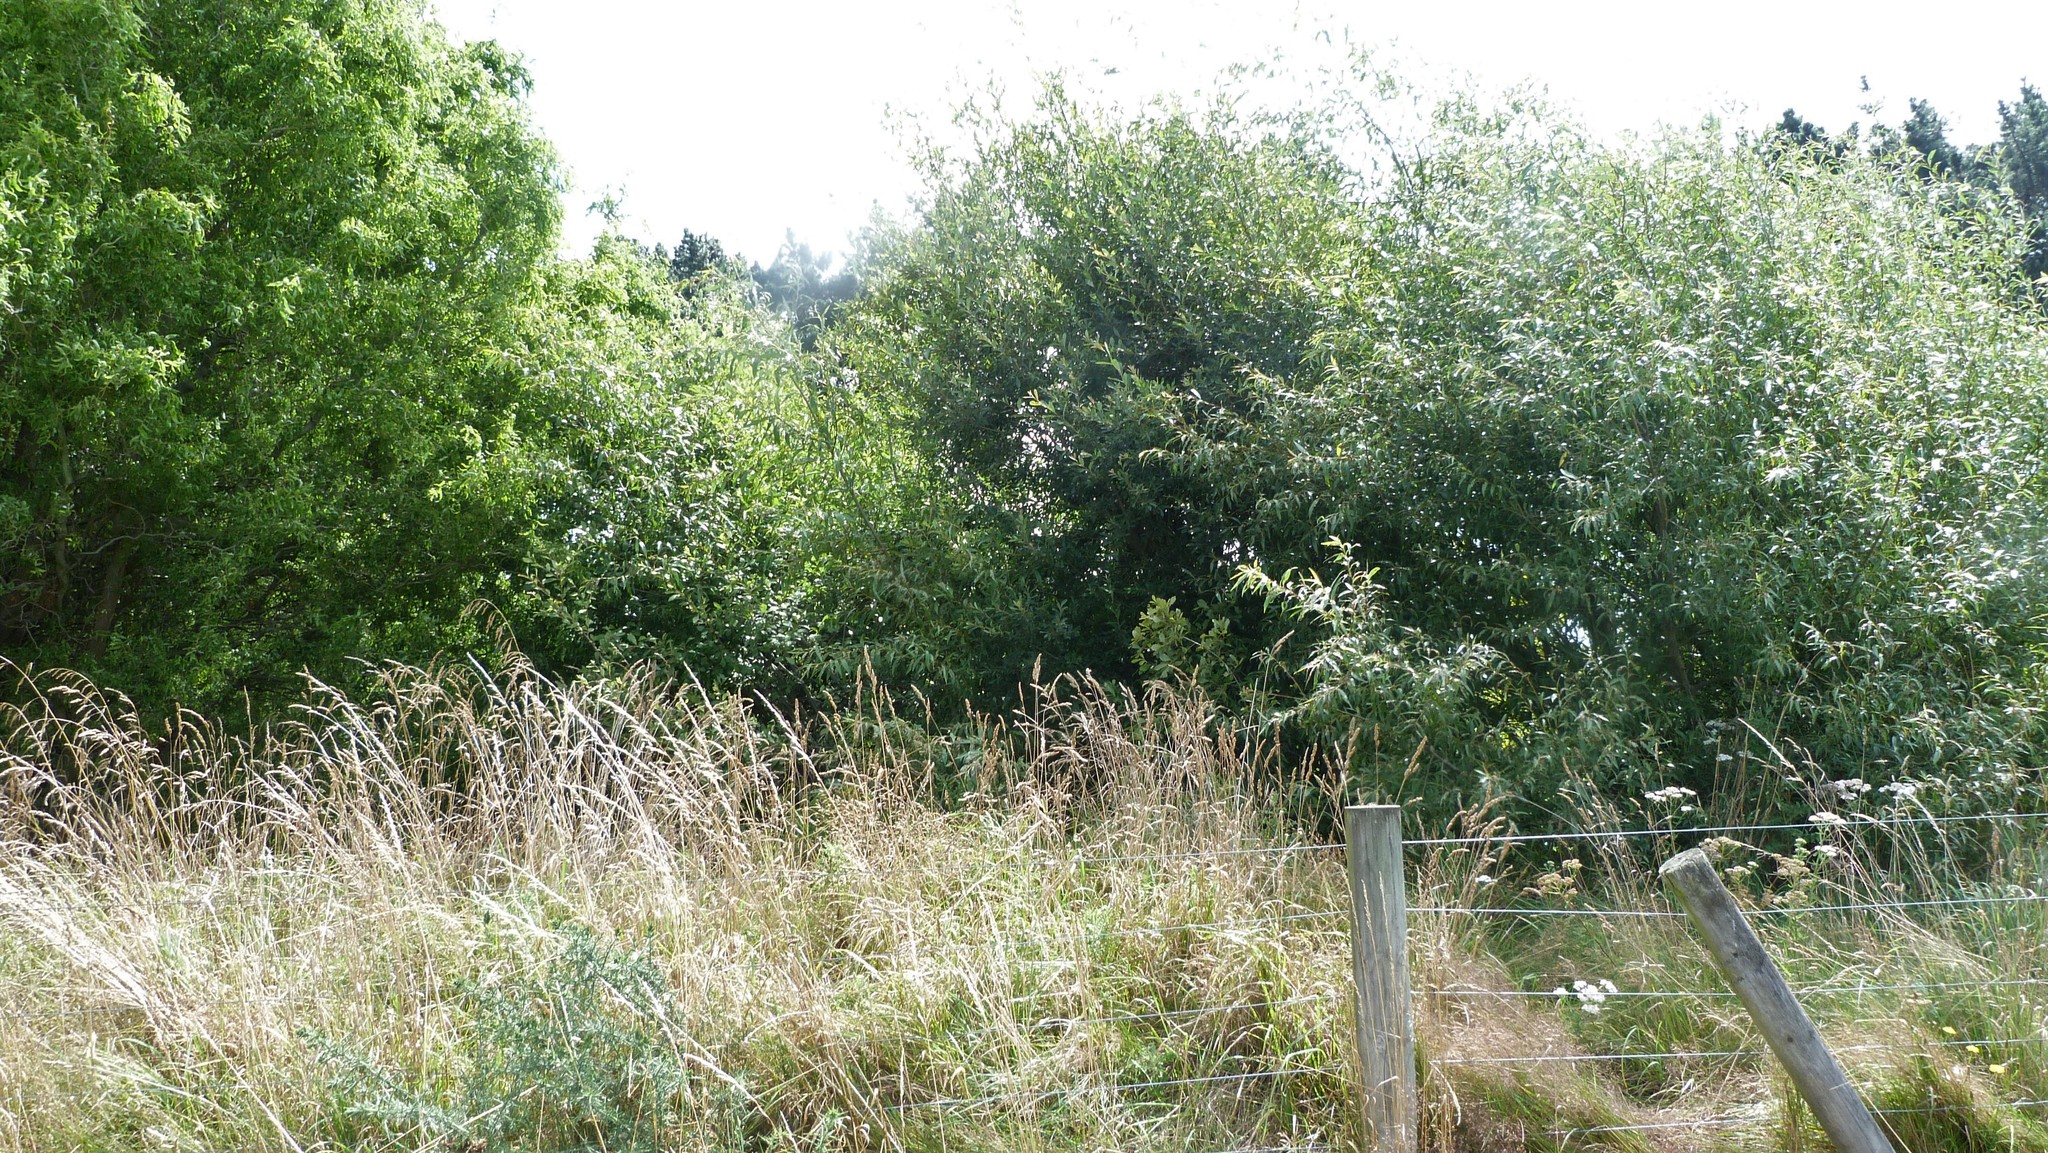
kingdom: Plantae
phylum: Tracheophyta
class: Magnoliopsida
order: Malpighiales
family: Salicaceae
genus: Salix
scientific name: Salix fragilis
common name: Crack willow
